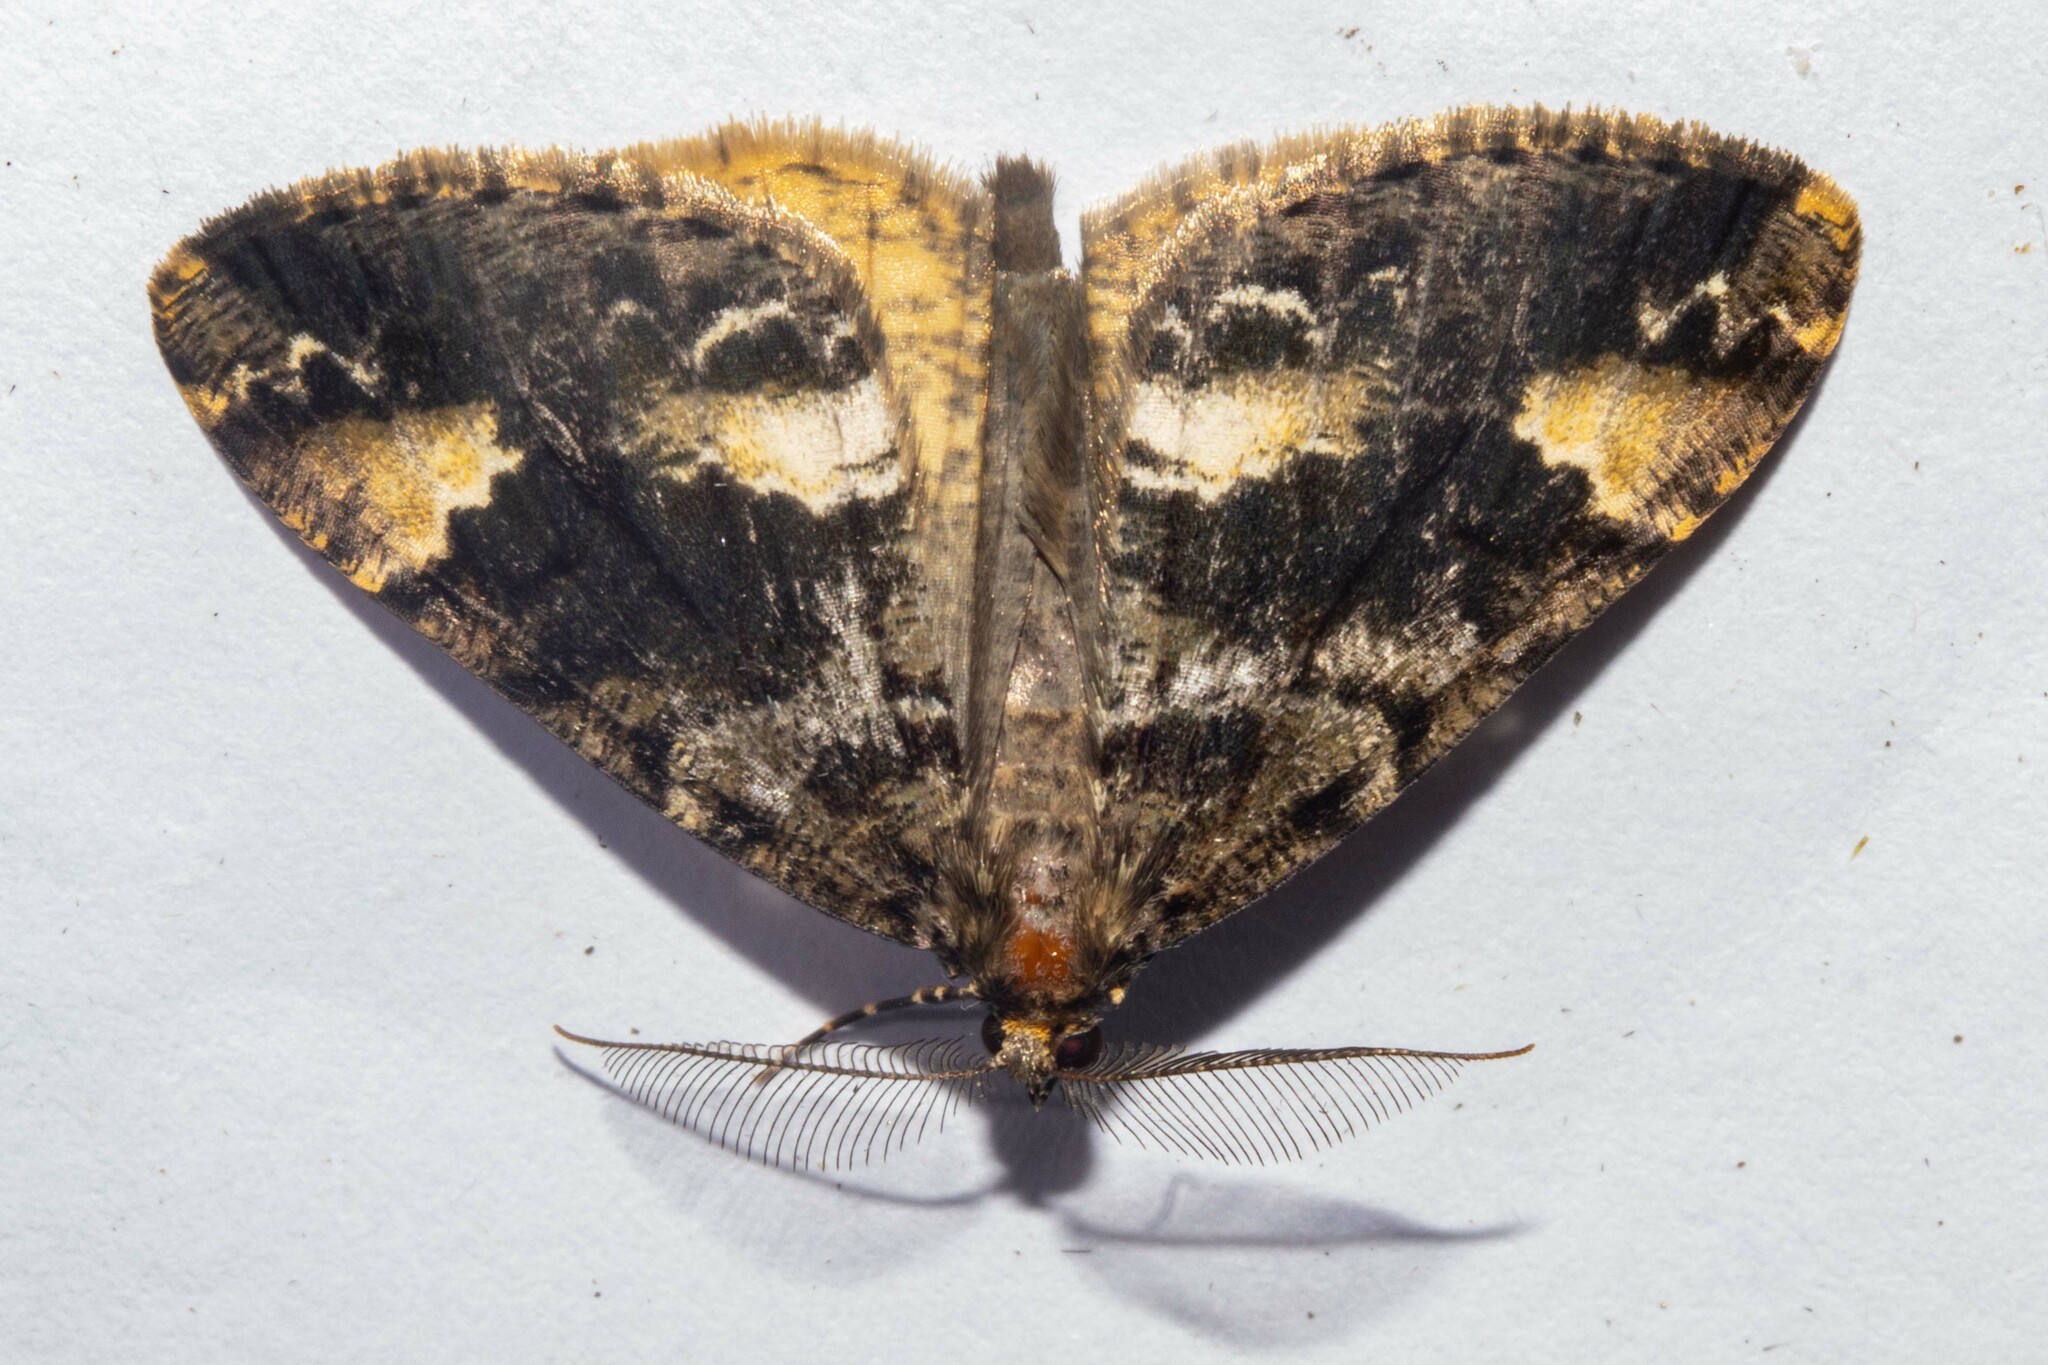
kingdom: Animalia
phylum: Arthropoda
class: Insecta
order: Lepidoptera
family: Geometridae
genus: Pseudocoremia
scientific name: Pseudocoremia productata
